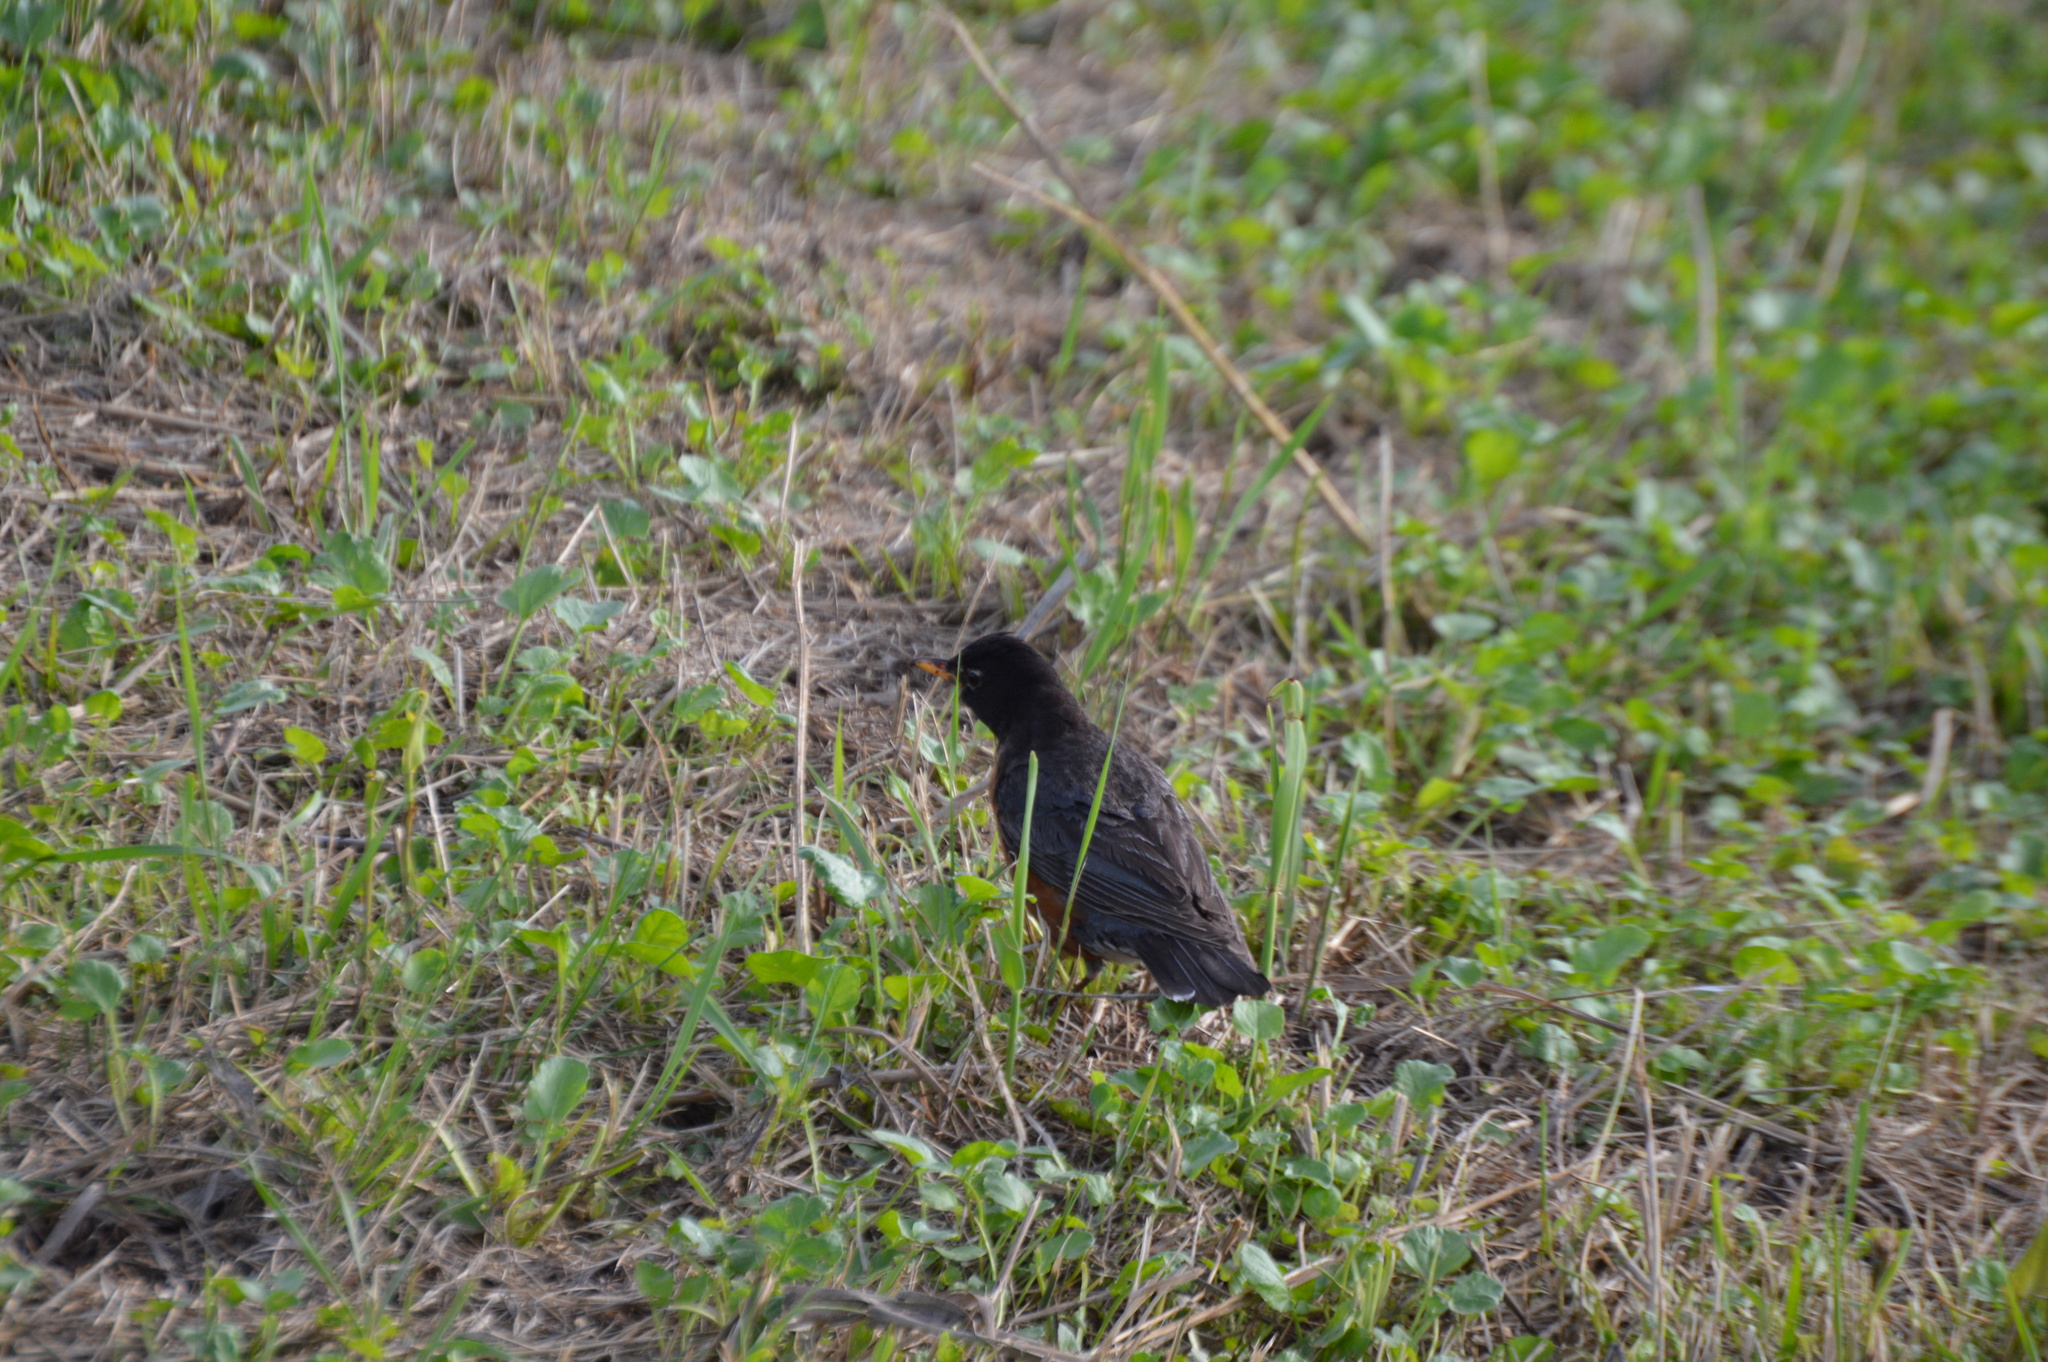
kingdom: Animalia
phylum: Chordata
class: Aves
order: Passeriformes
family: Turdidae
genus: Turdus
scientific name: Turdus migratorius
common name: American robin
